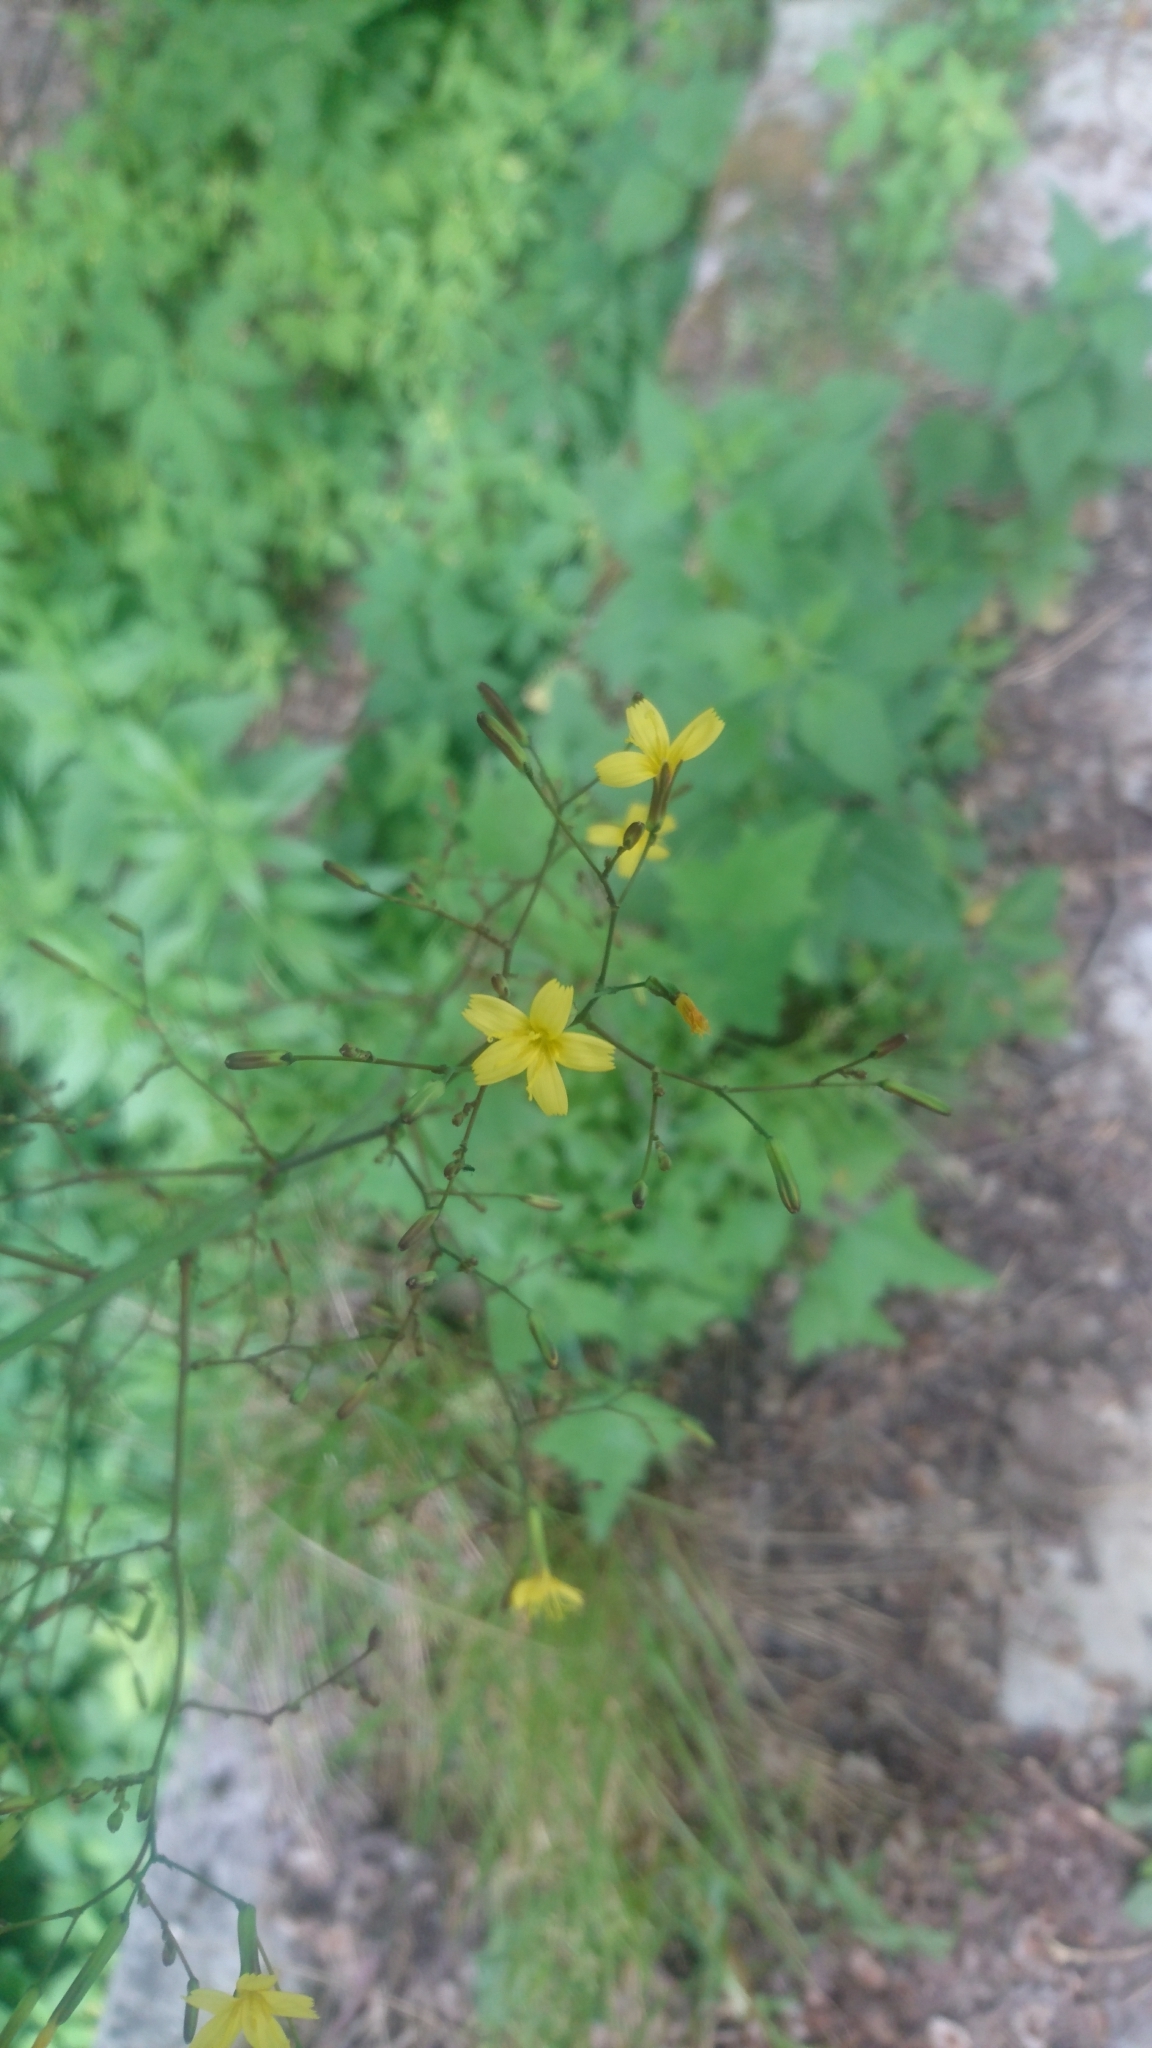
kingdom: Plantae
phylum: Tracheophyta
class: Magnoliopsida
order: Asterales
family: Asteraceae
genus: Mycelis
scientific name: Mycelis muralis
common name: Wall lettuce
